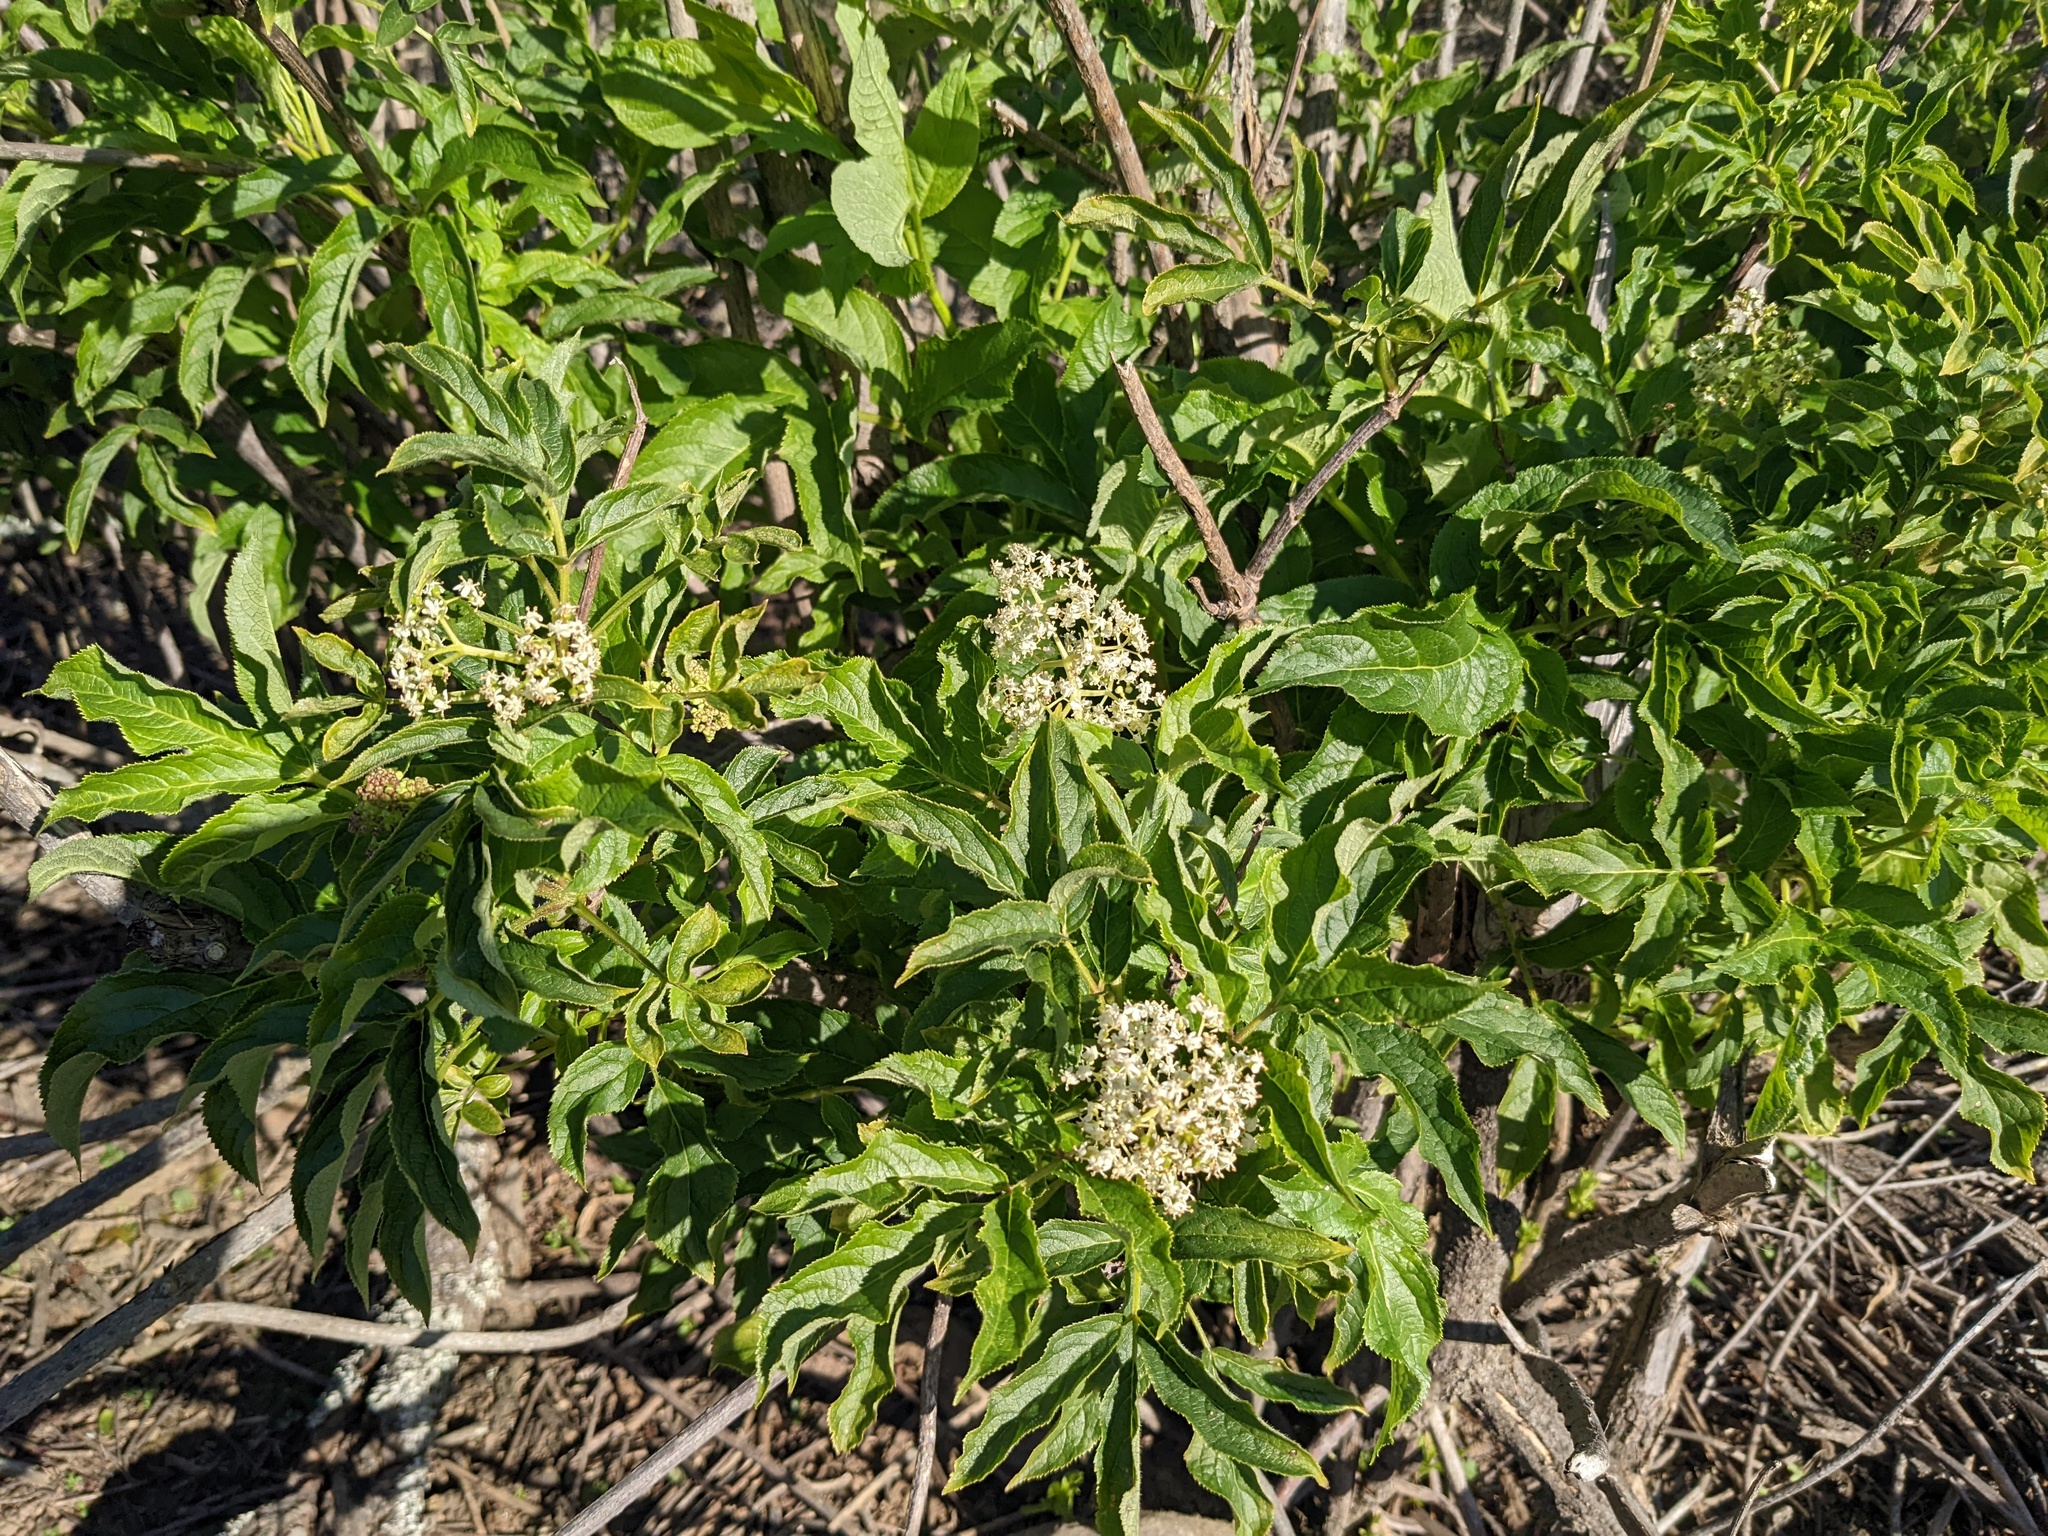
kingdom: Plantae
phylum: Tracheophyta
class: Magnoliopsida
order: Dipsacales
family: Viburnaceae
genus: Sambucus
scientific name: Sambucus racemosa
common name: Red-berried elder
